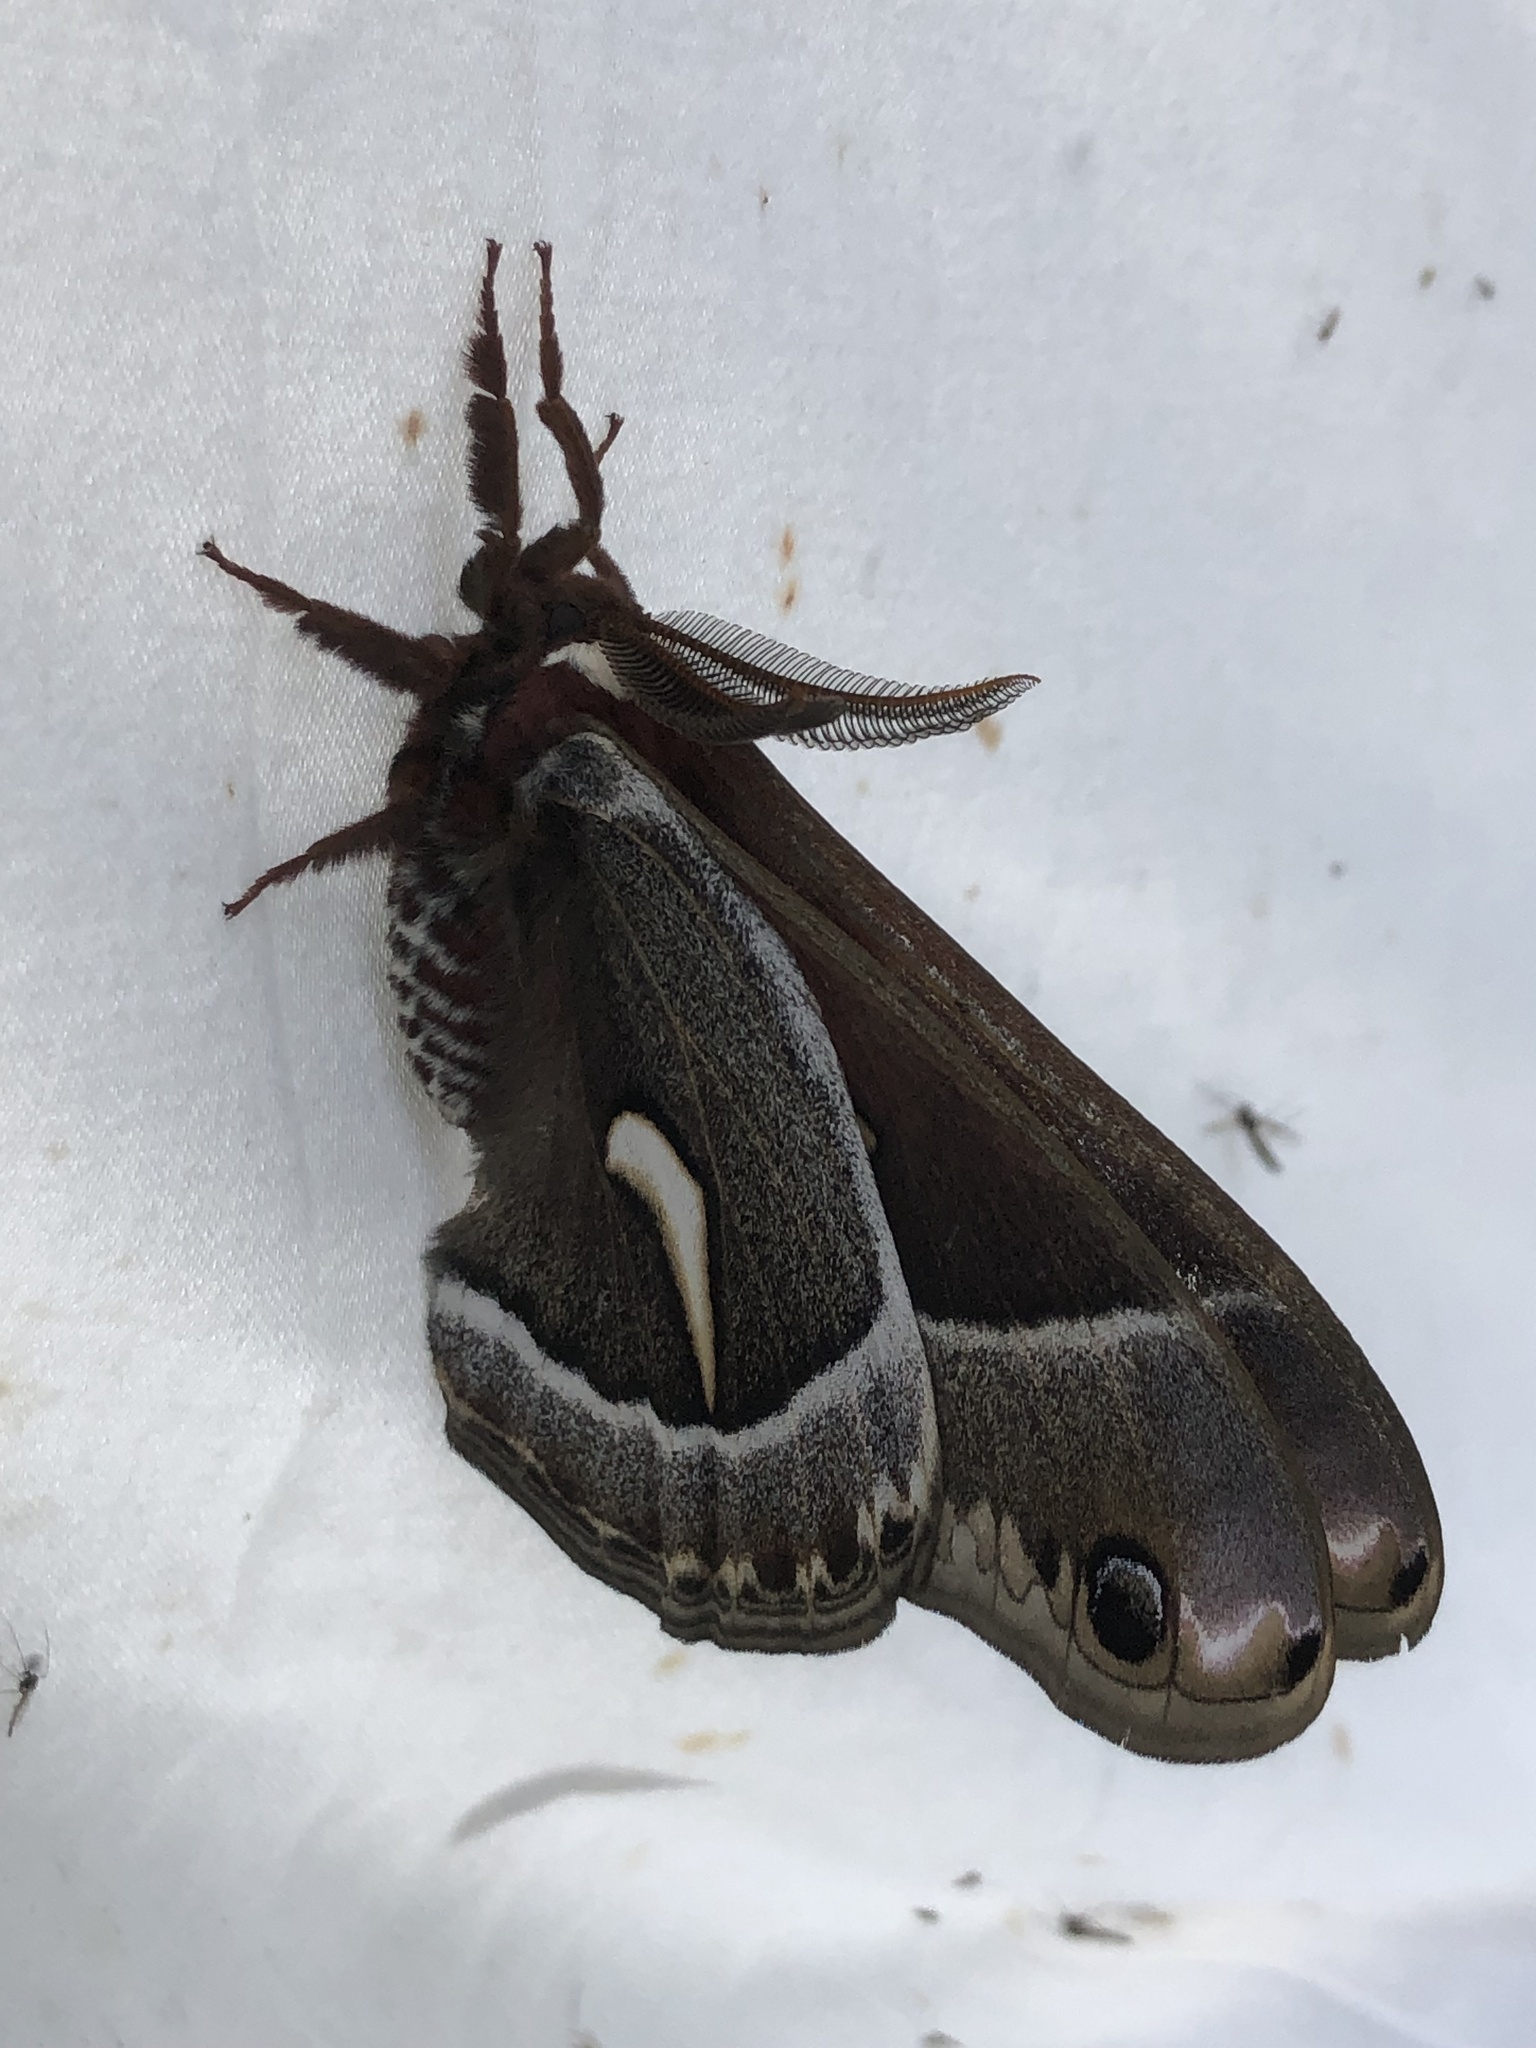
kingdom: Animalia
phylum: Arthropoda
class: Insecta
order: Lepidoptera
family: Saturniidae
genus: Hyalophora
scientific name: Hyalophora euryalus
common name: Ceanothus silkmoth
